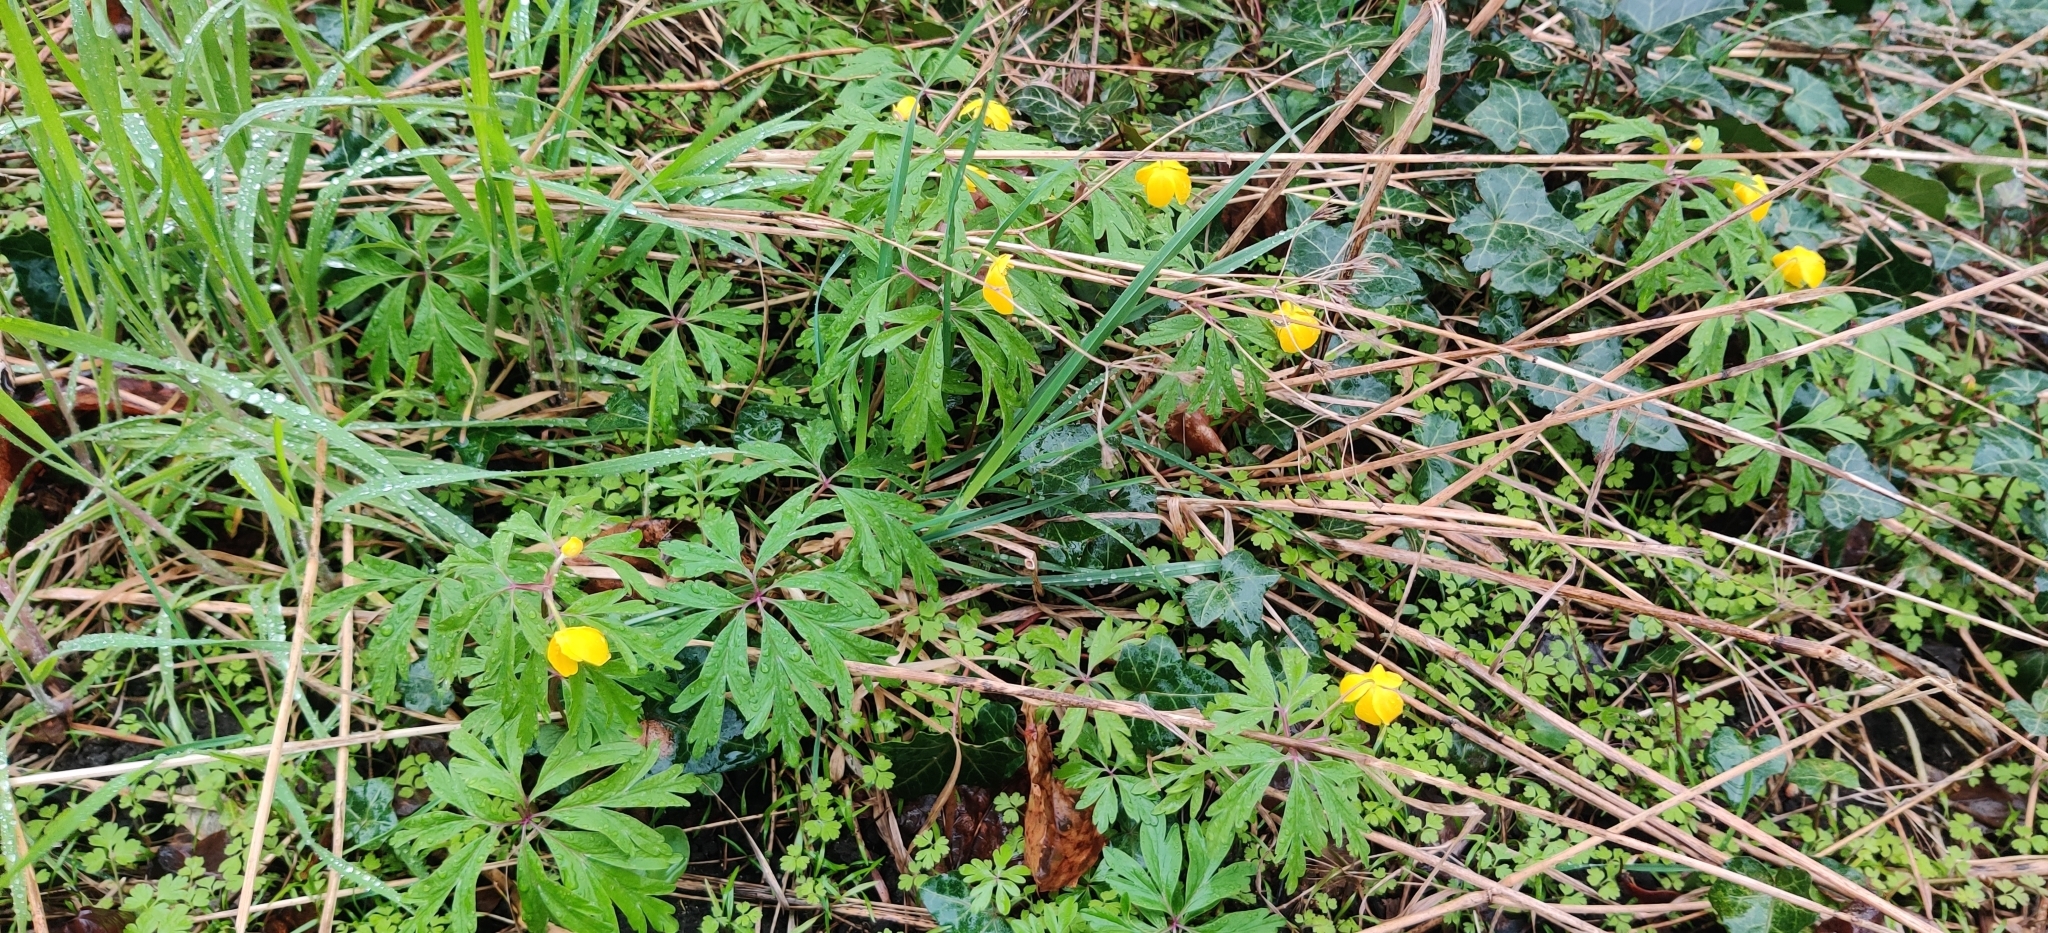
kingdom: Plantae
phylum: Tracheophyta
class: Magnoliopsida
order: Ranunculales
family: Ranunculaceae
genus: Anemone
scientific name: Anemone ranunculoides
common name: Yellow anemone
